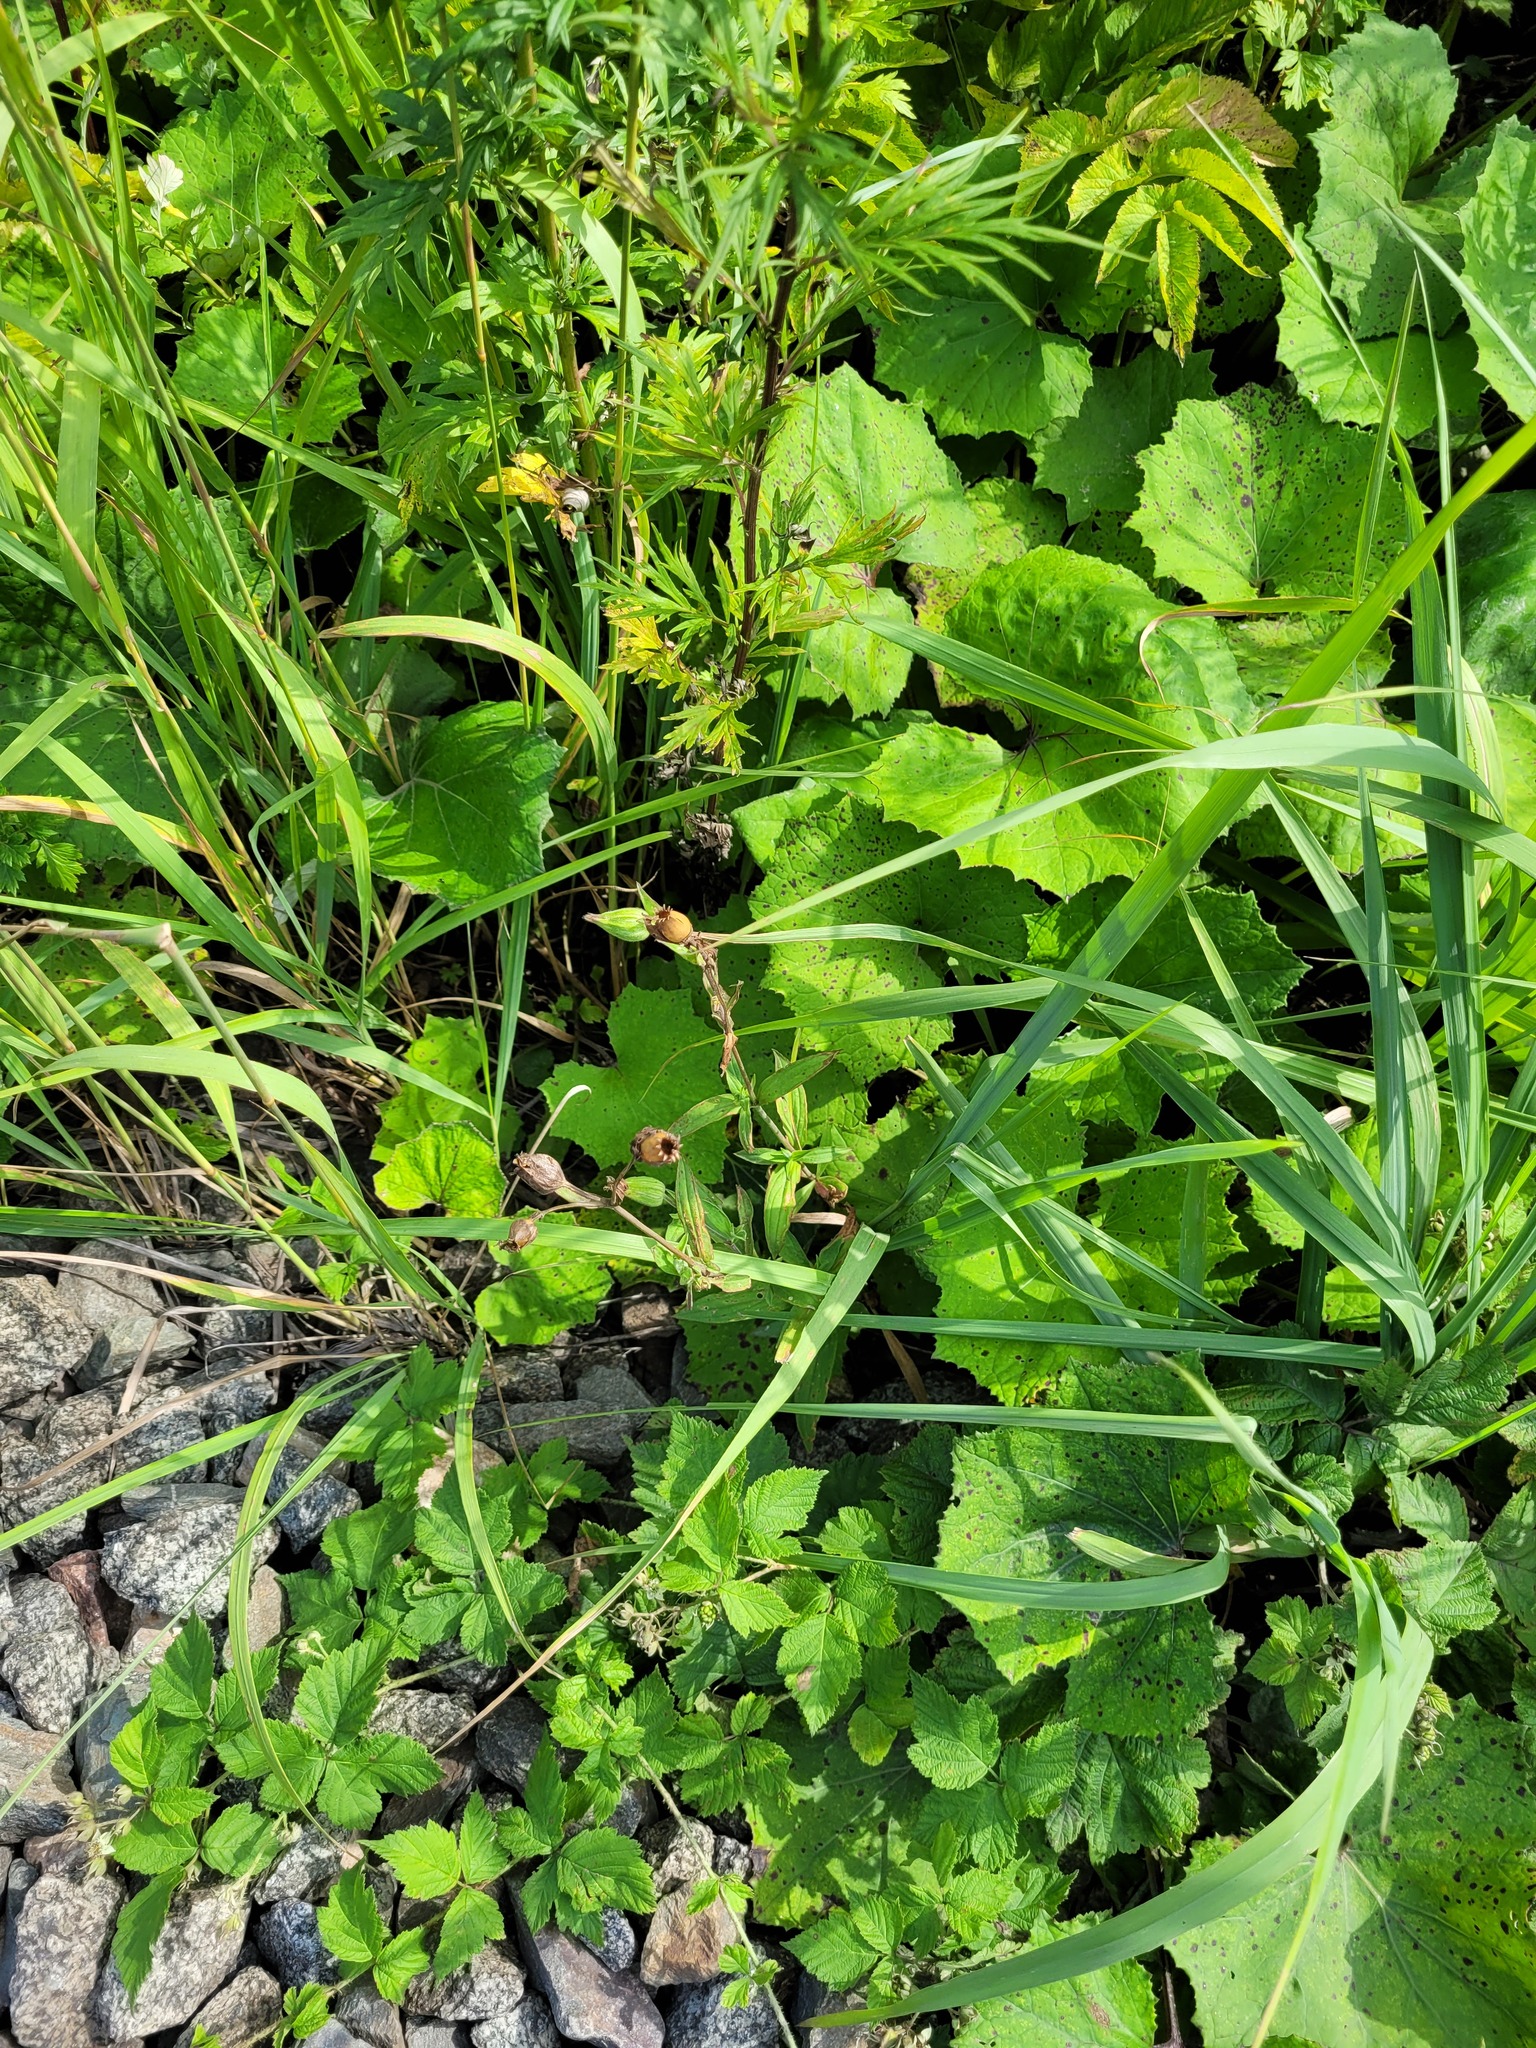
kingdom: Plantae
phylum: Tracheophyta
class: Magnoliopsida
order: Caryophyllales
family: Caryophyllaceae
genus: Silene
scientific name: Silene latifolia
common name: White campion
